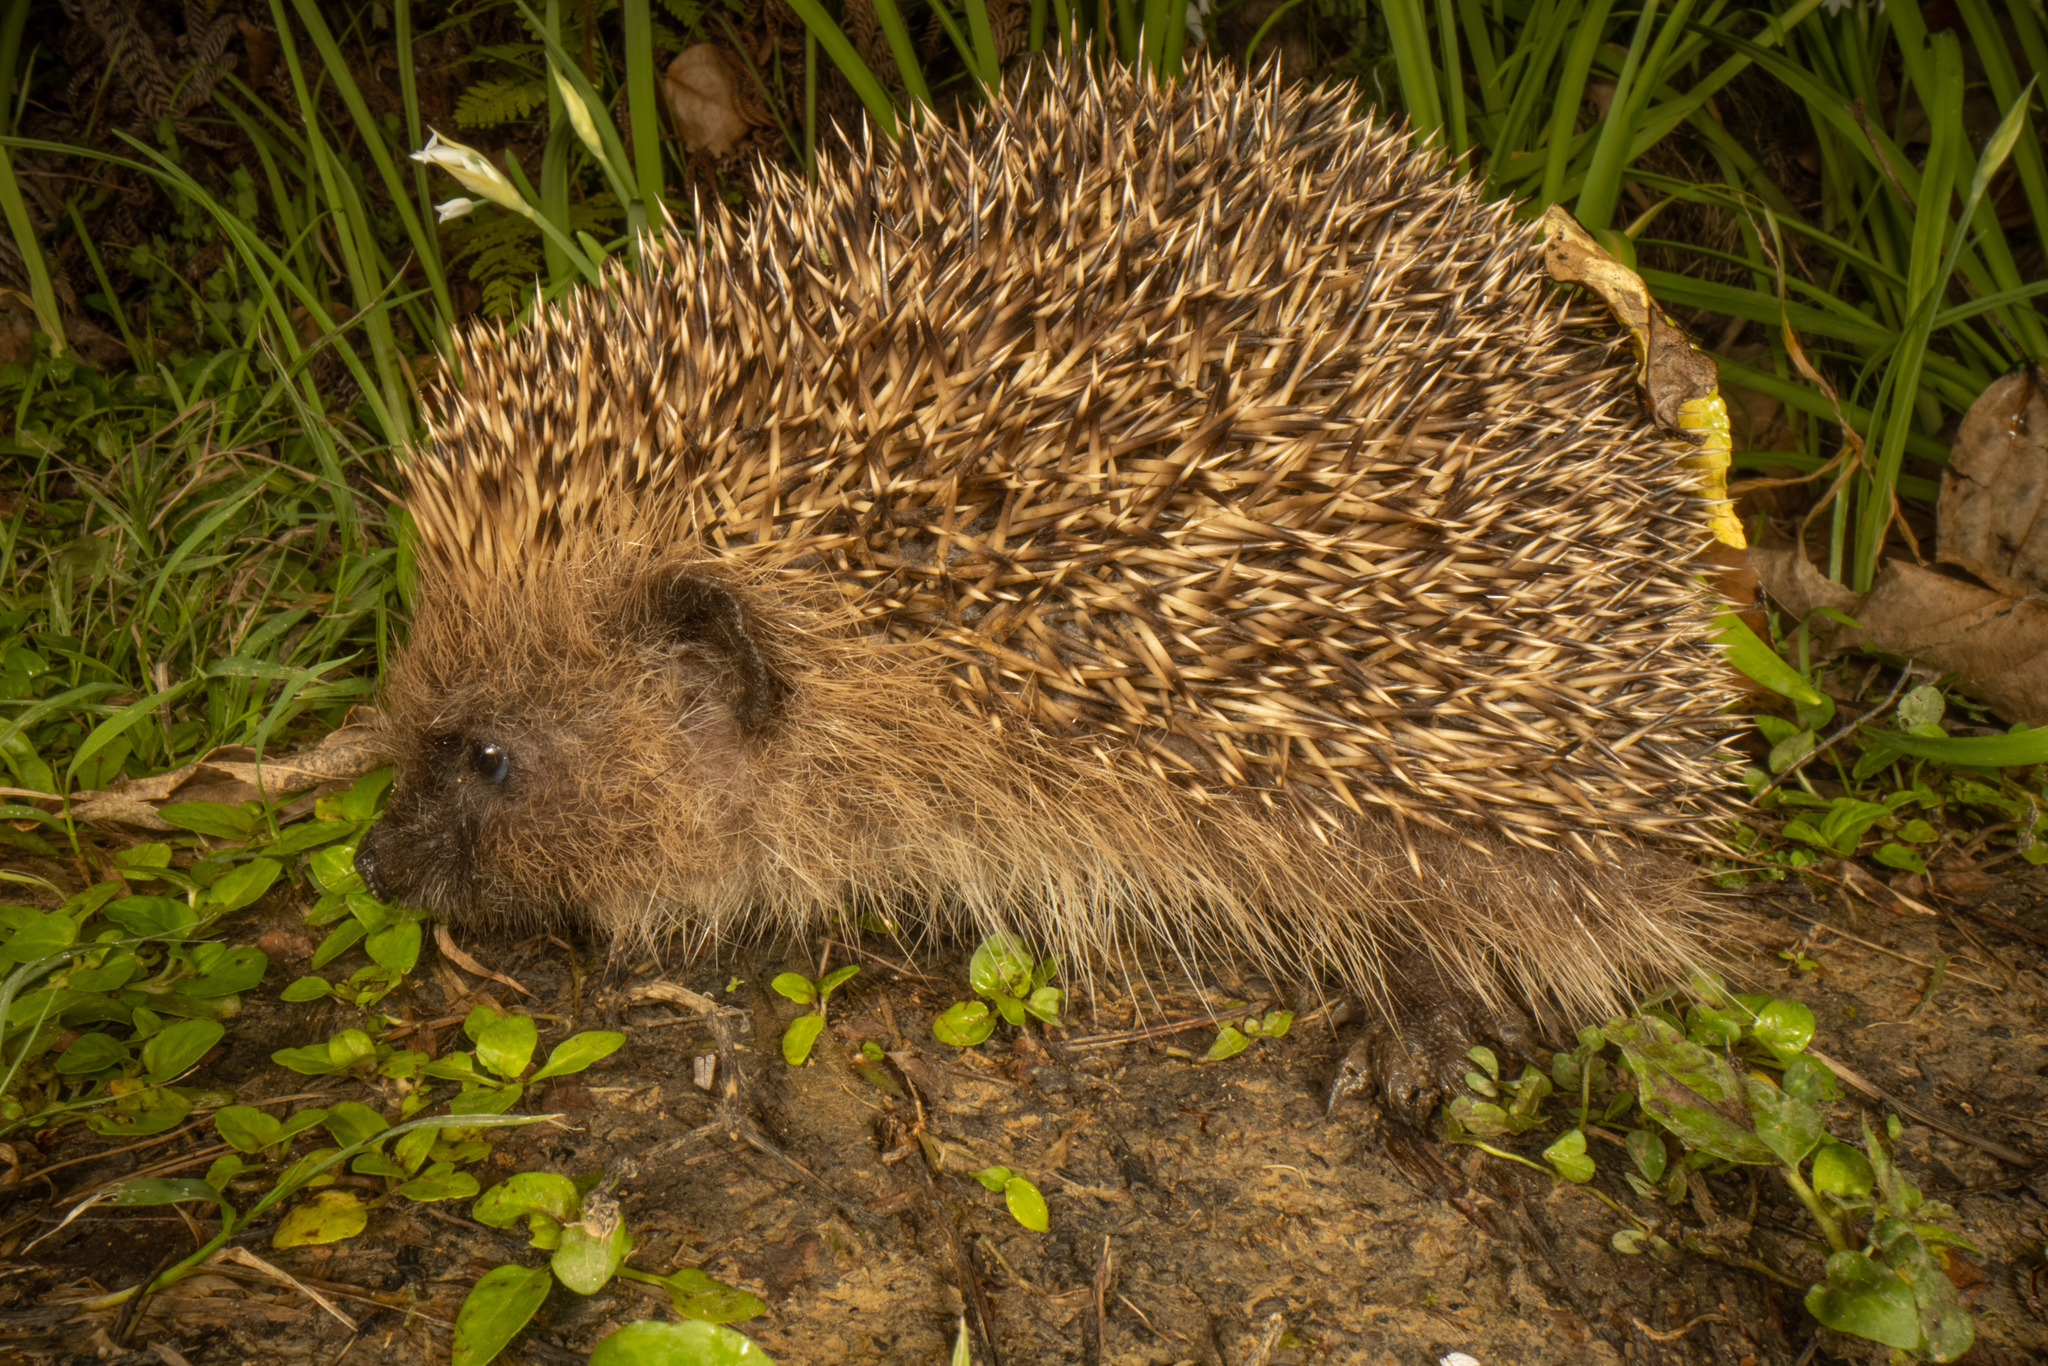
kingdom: Animalia
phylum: Chordata
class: Mammalia
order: Erinaceomorpha
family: Erinaceidae
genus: Erinaceus
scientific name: Erinaceus europaeus
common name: West european hedgehog
